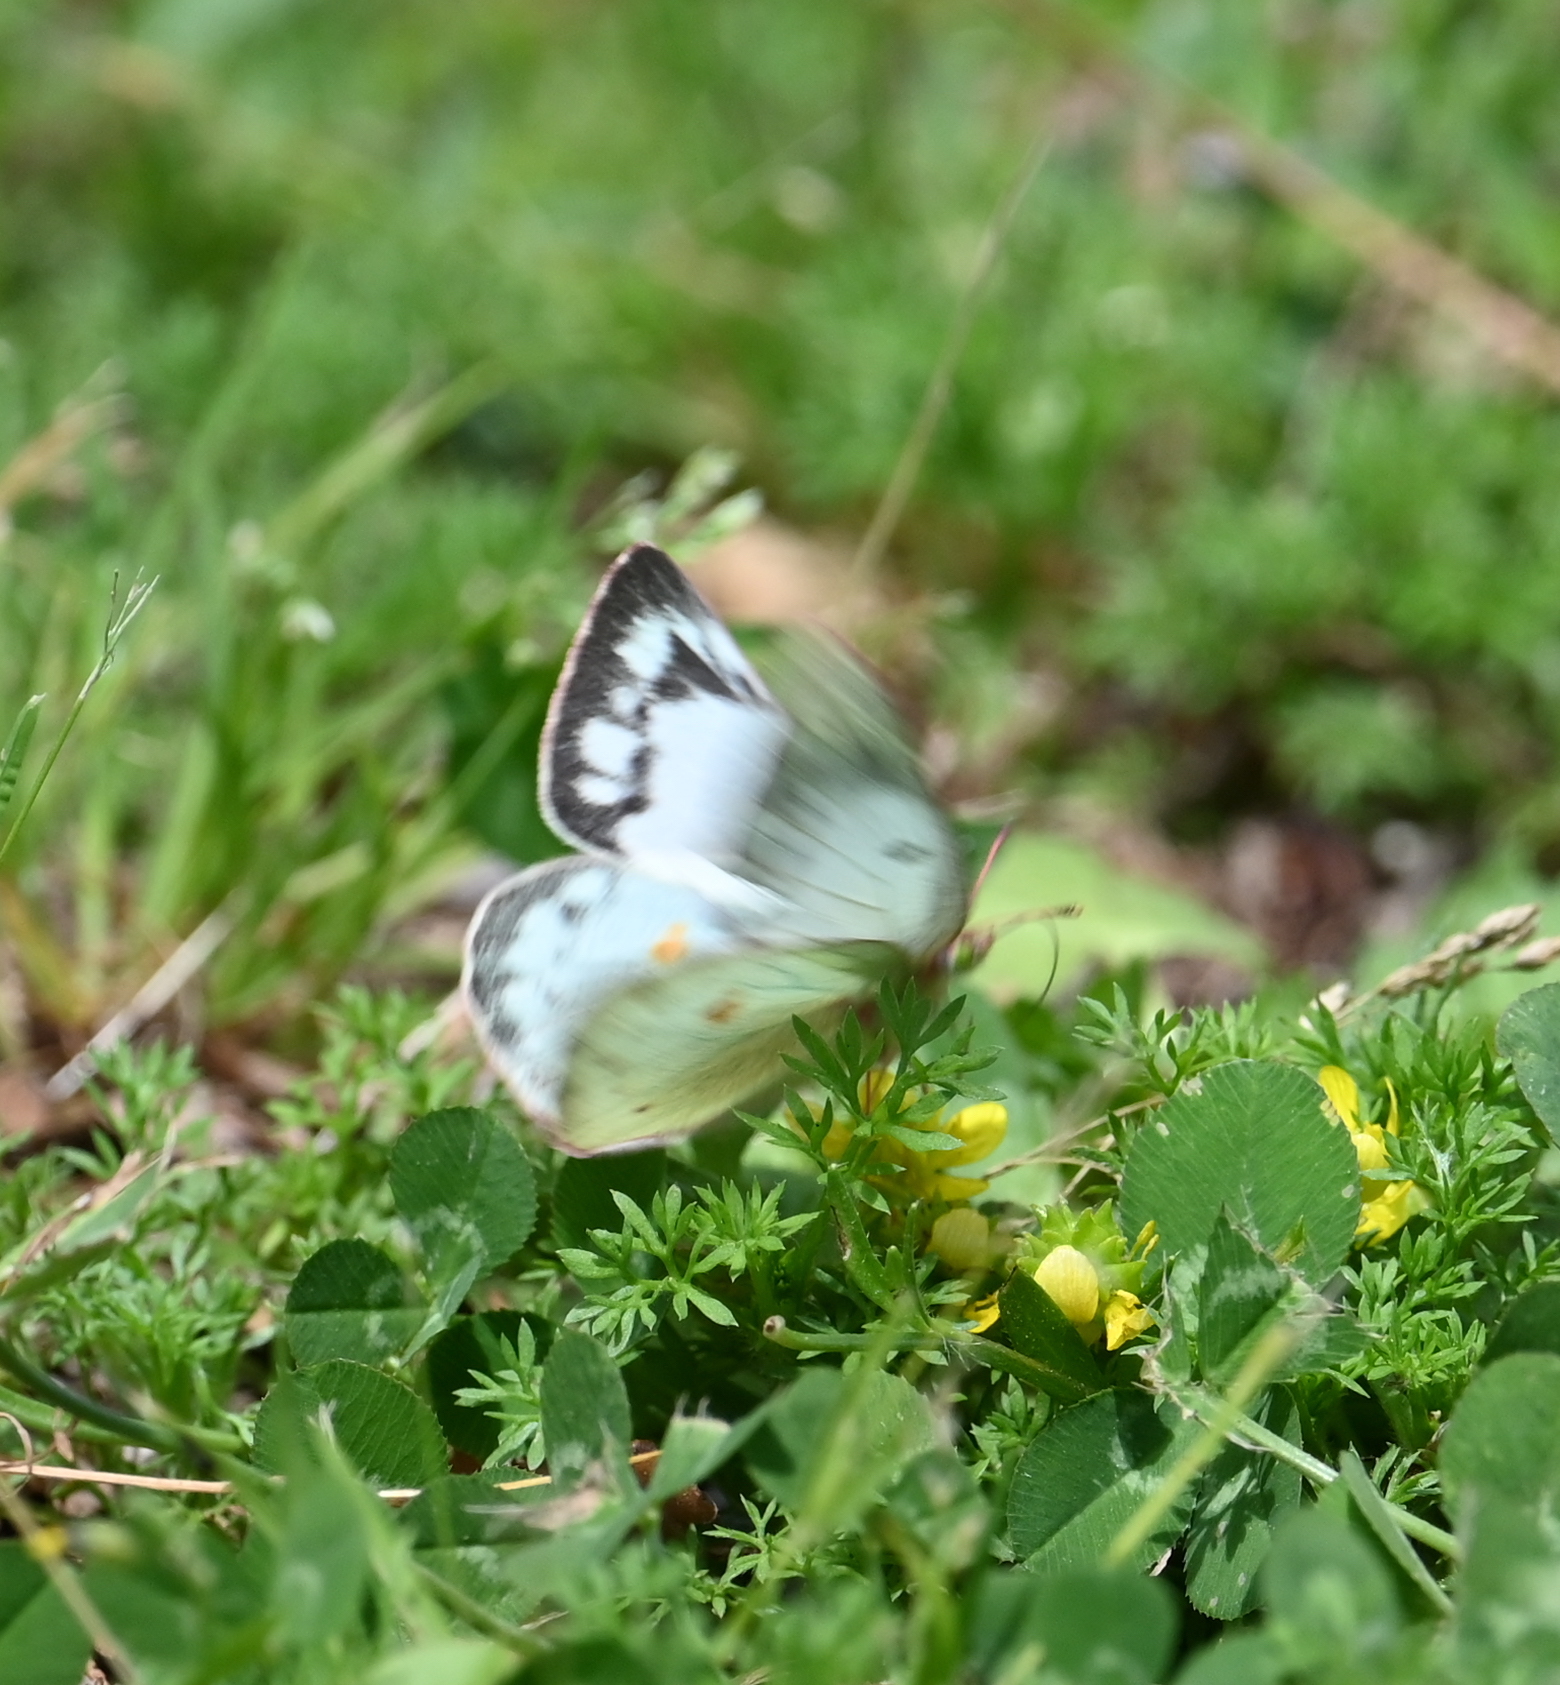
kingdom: Animalia
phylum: Arthropoda
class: Insecta
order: Lepidoptera
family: Pieridae
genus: Colias
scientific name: Colias eurytheme
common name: Alfalfa butterfly
